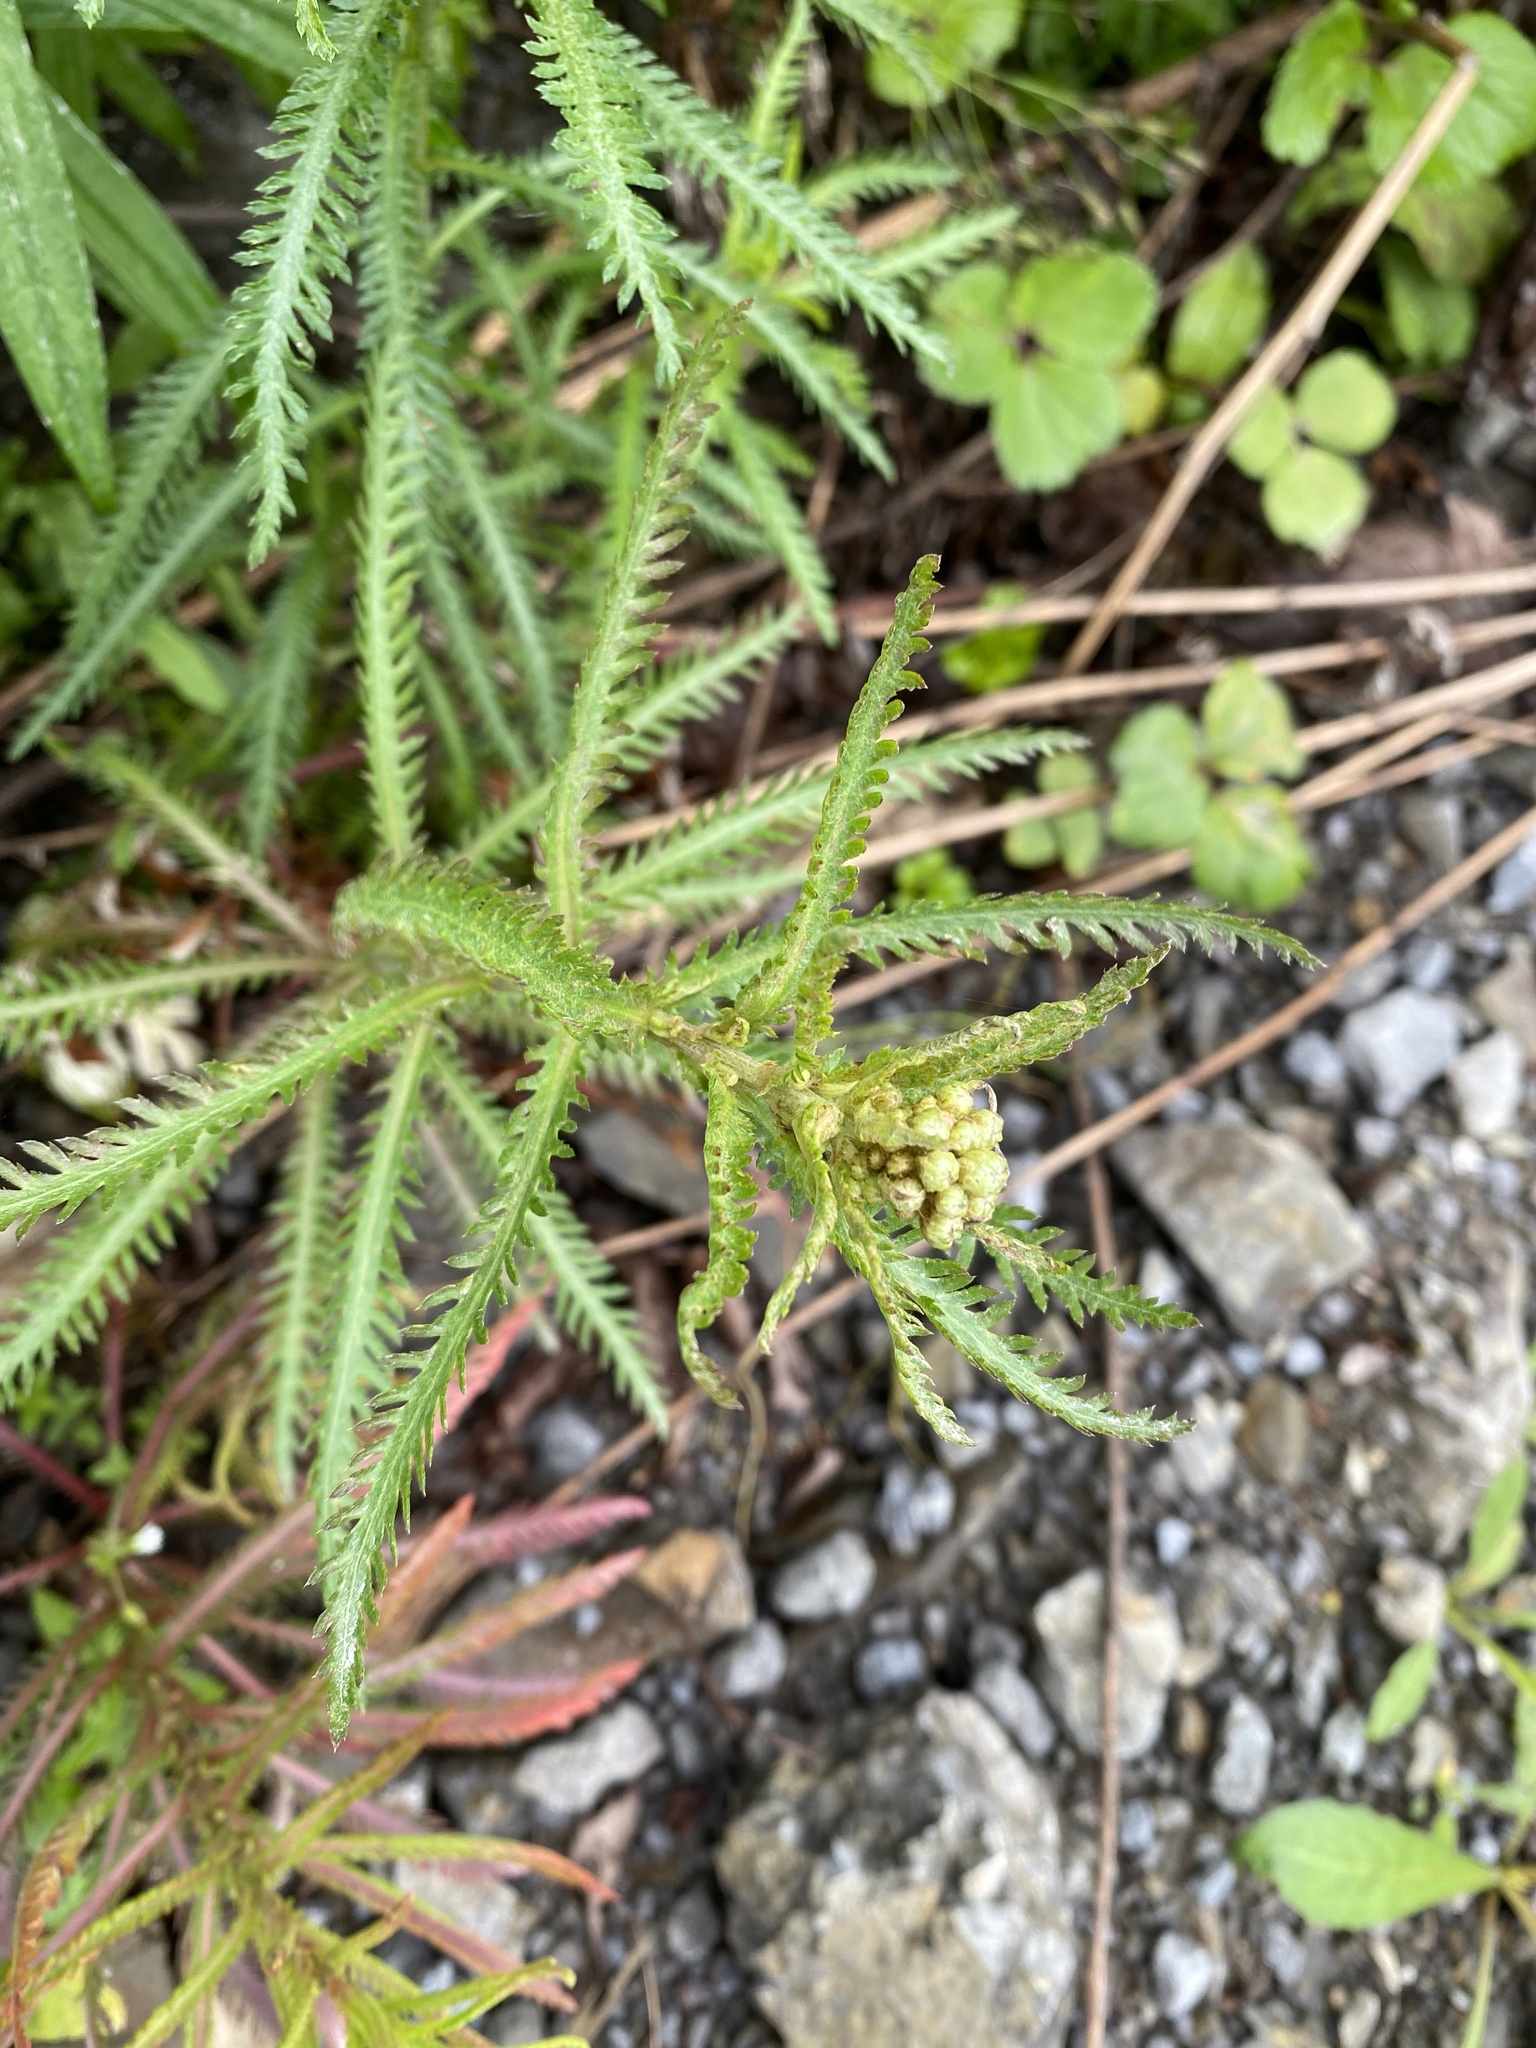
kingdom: Plantae
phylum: Tracheophyta
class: Magnoliopsida
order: Asterales
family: Asteraceae
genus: Achillea
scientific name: Achillea alpina
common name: Siberian yarrow
